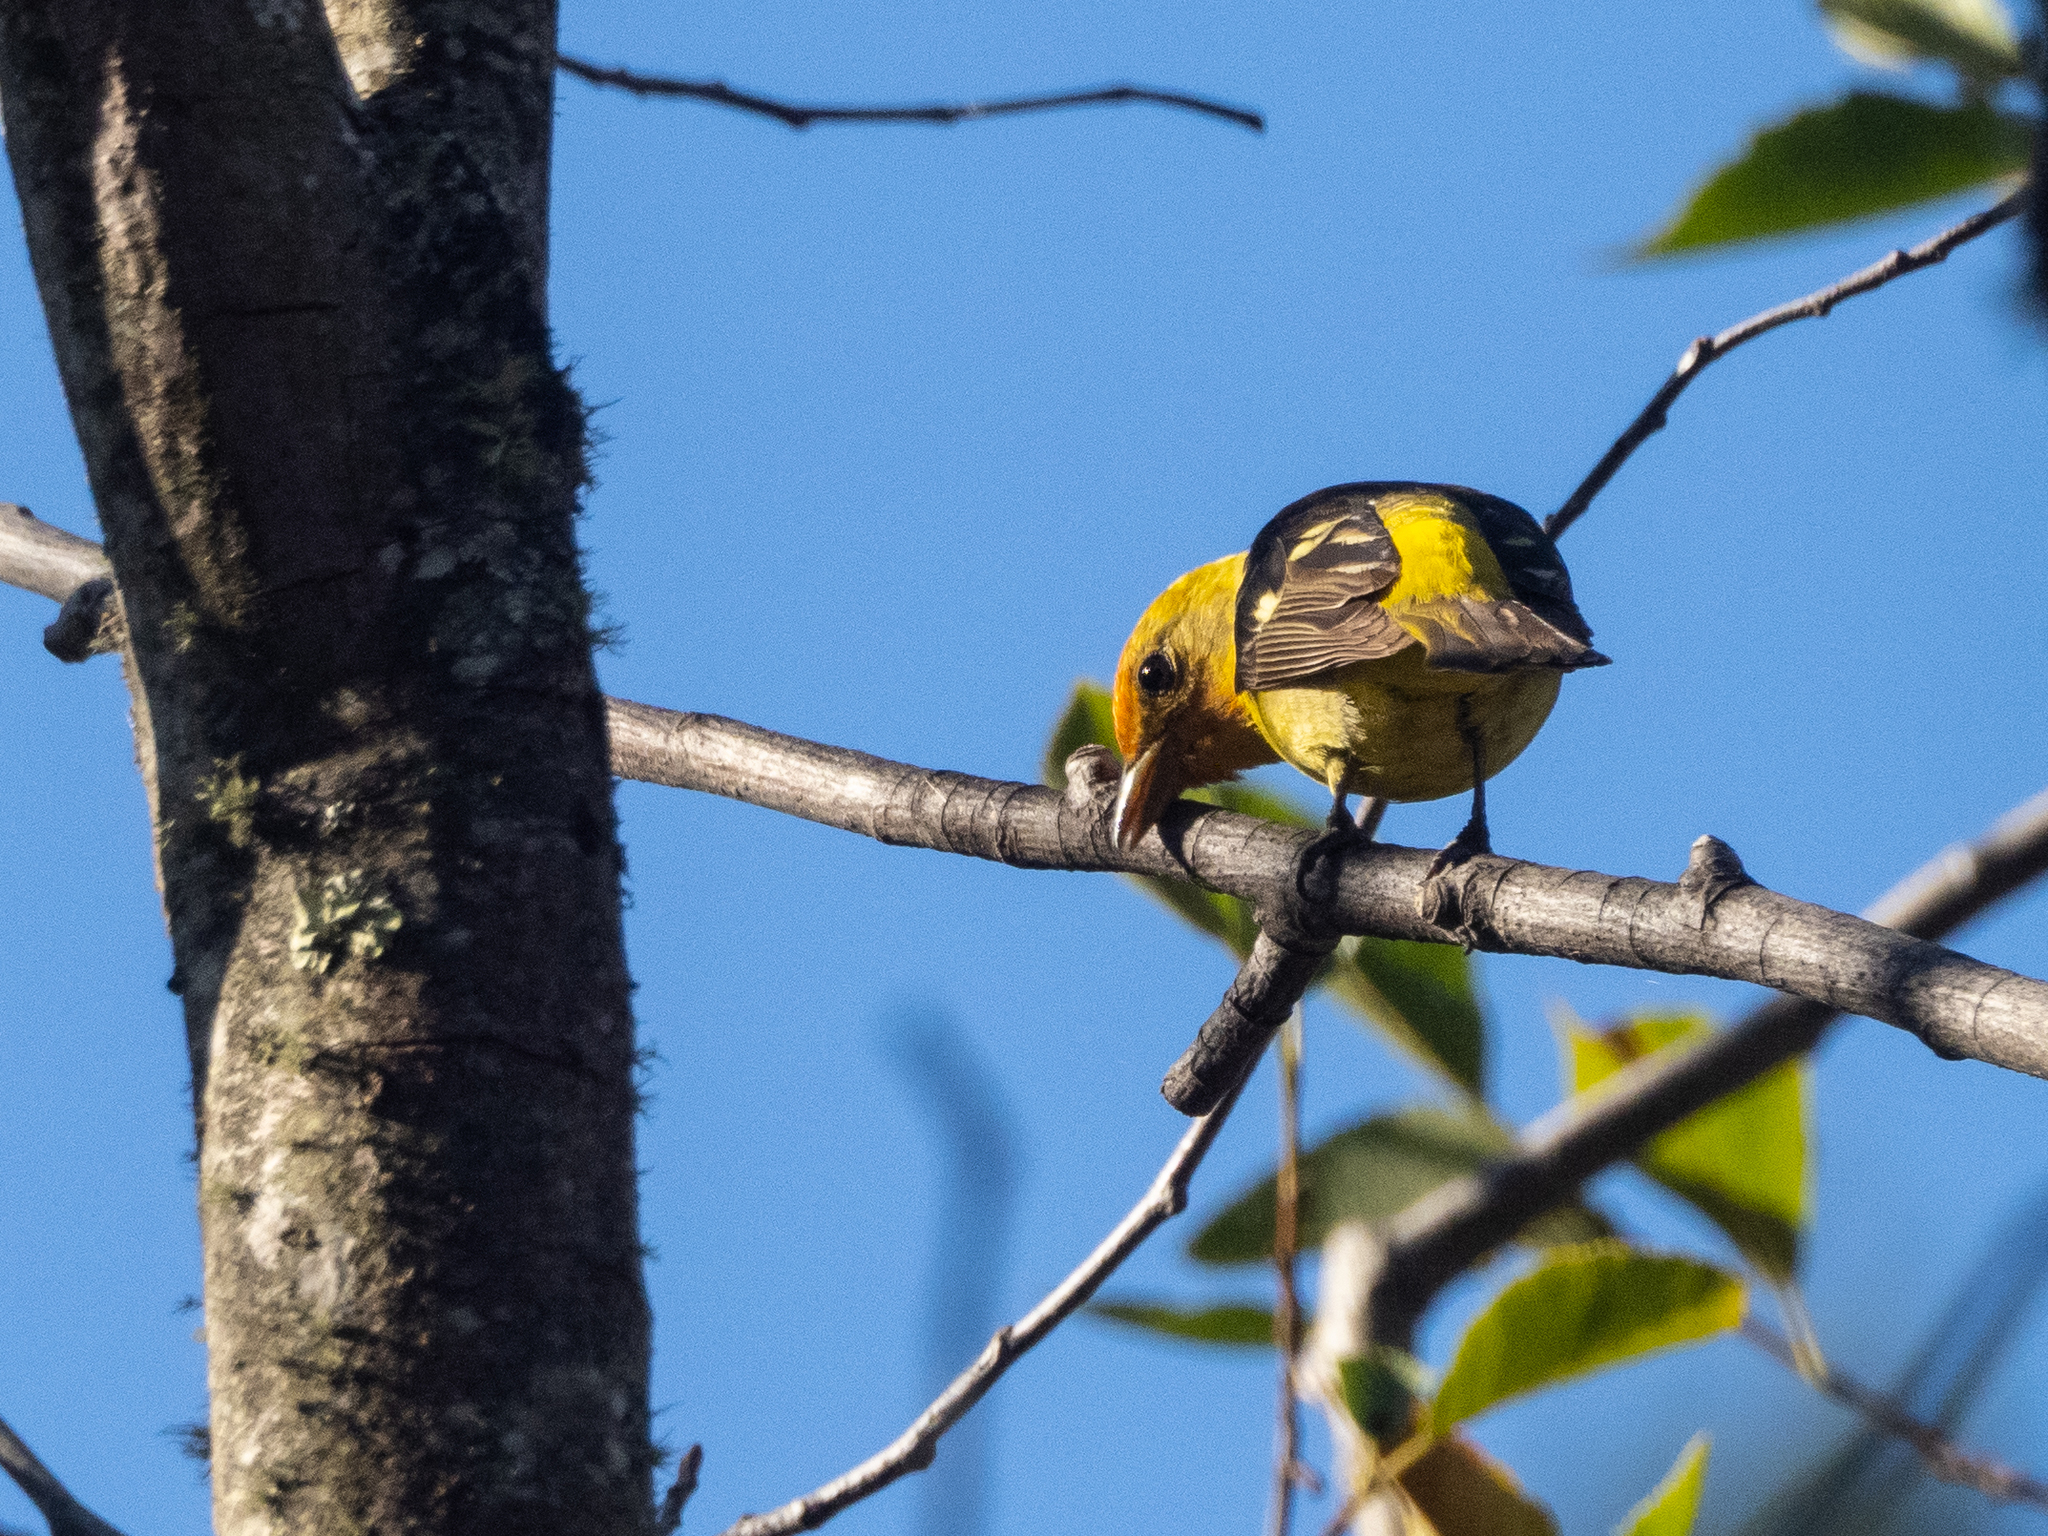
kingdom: Animalia
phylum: Chordata
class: Aves
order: Passeriformes
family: Cardinalidae
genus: Piranga
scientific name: Piranga ludoviciana
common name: Western tanager
